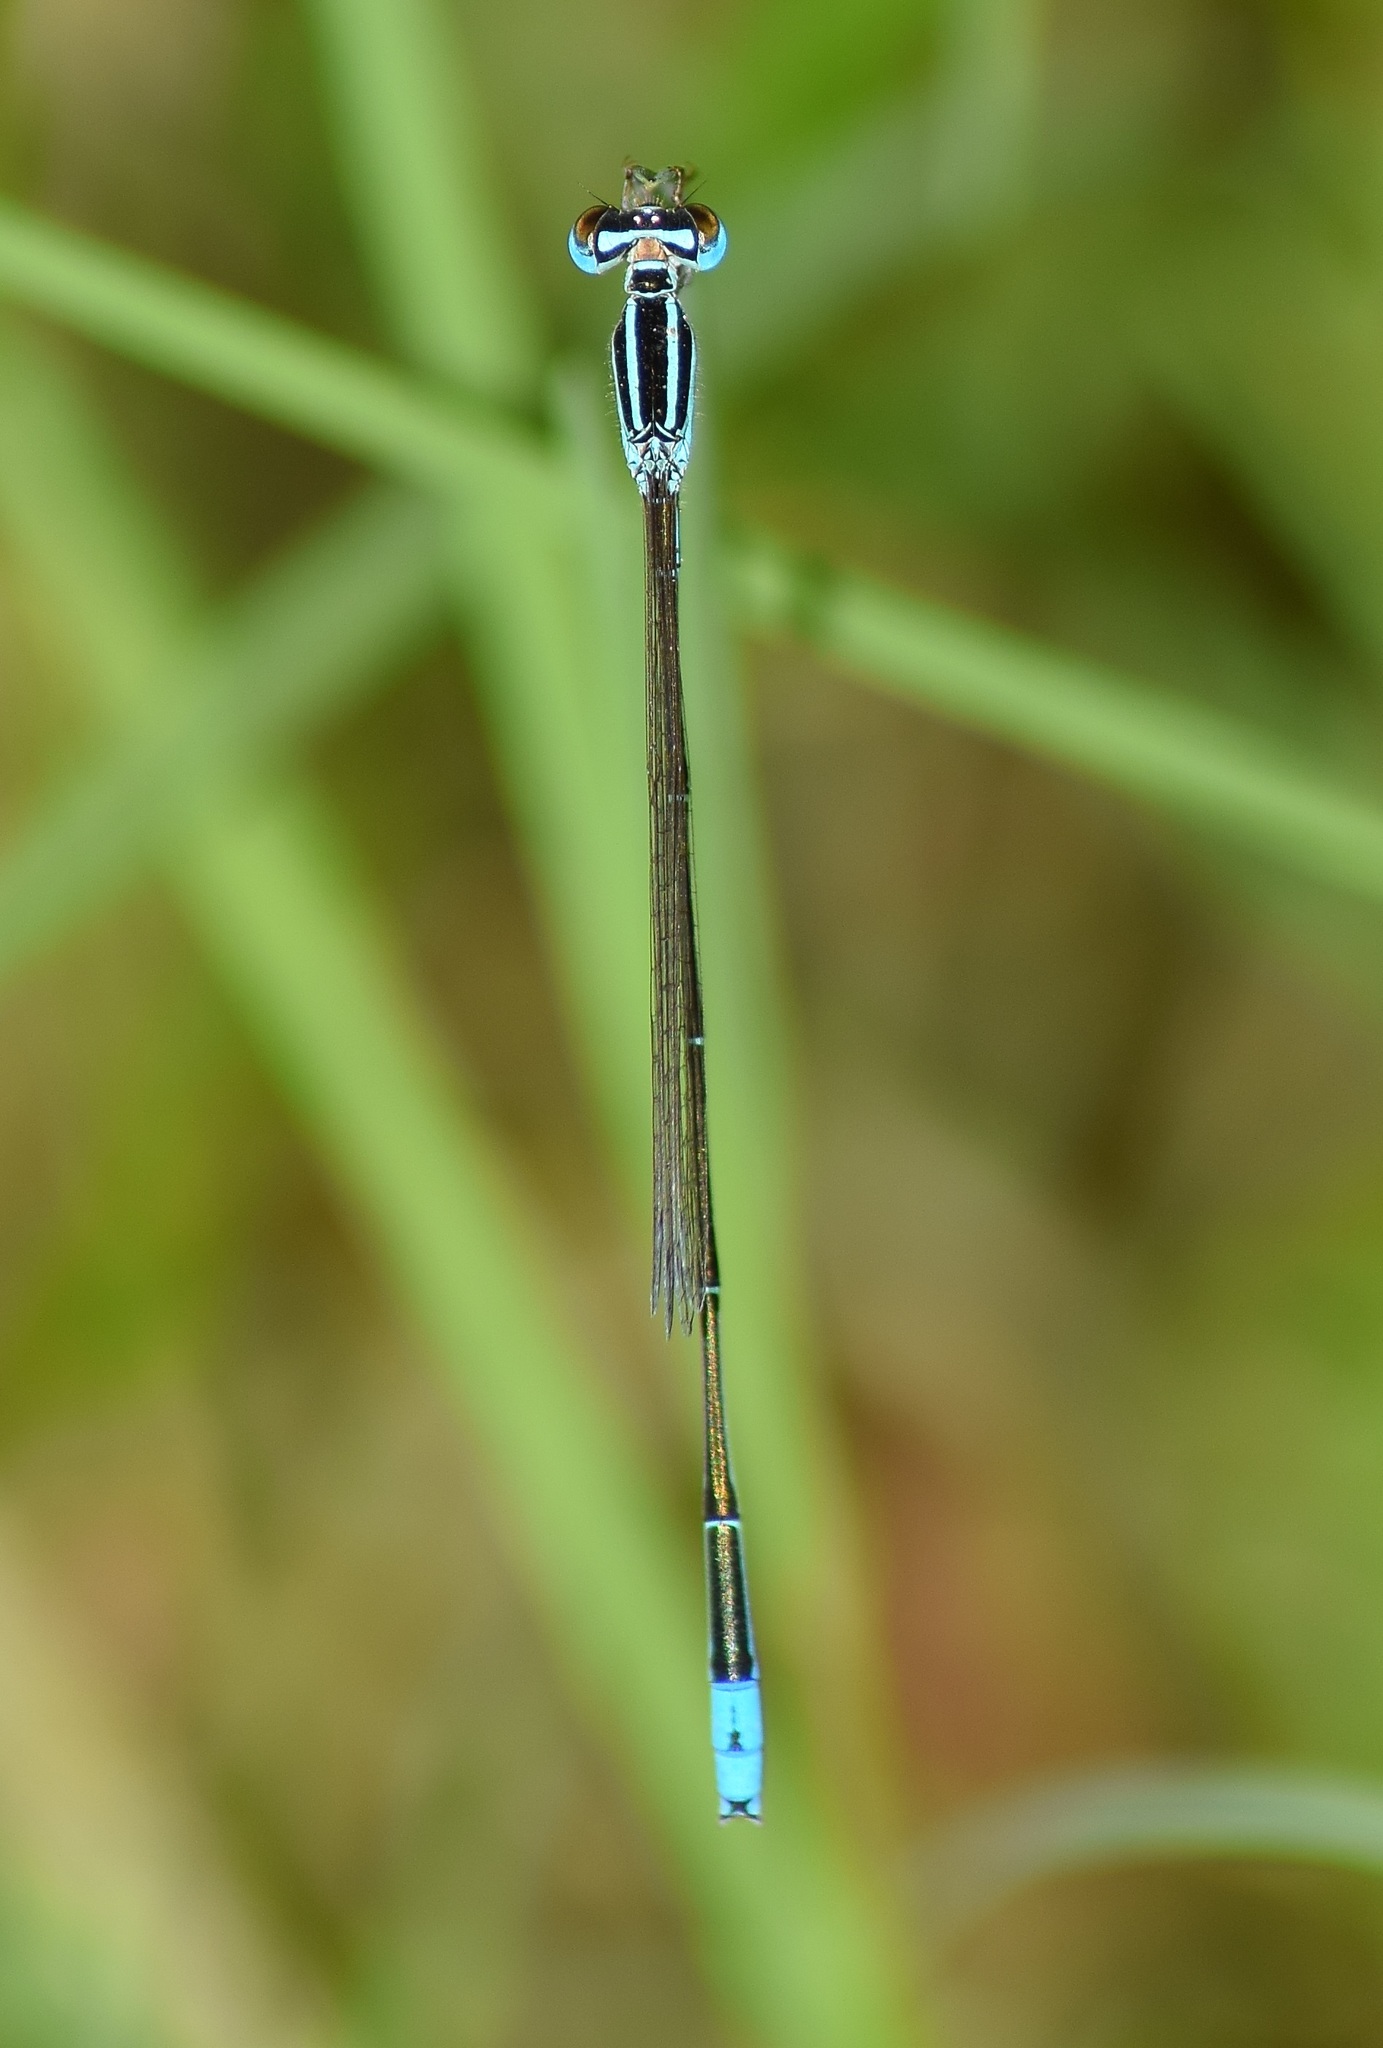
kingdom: Animalia
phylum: Arthropoda
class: Insecta
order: Odonata
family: Coenagrionidae
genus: Aciagrion
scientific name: Aciagrion occidentale
